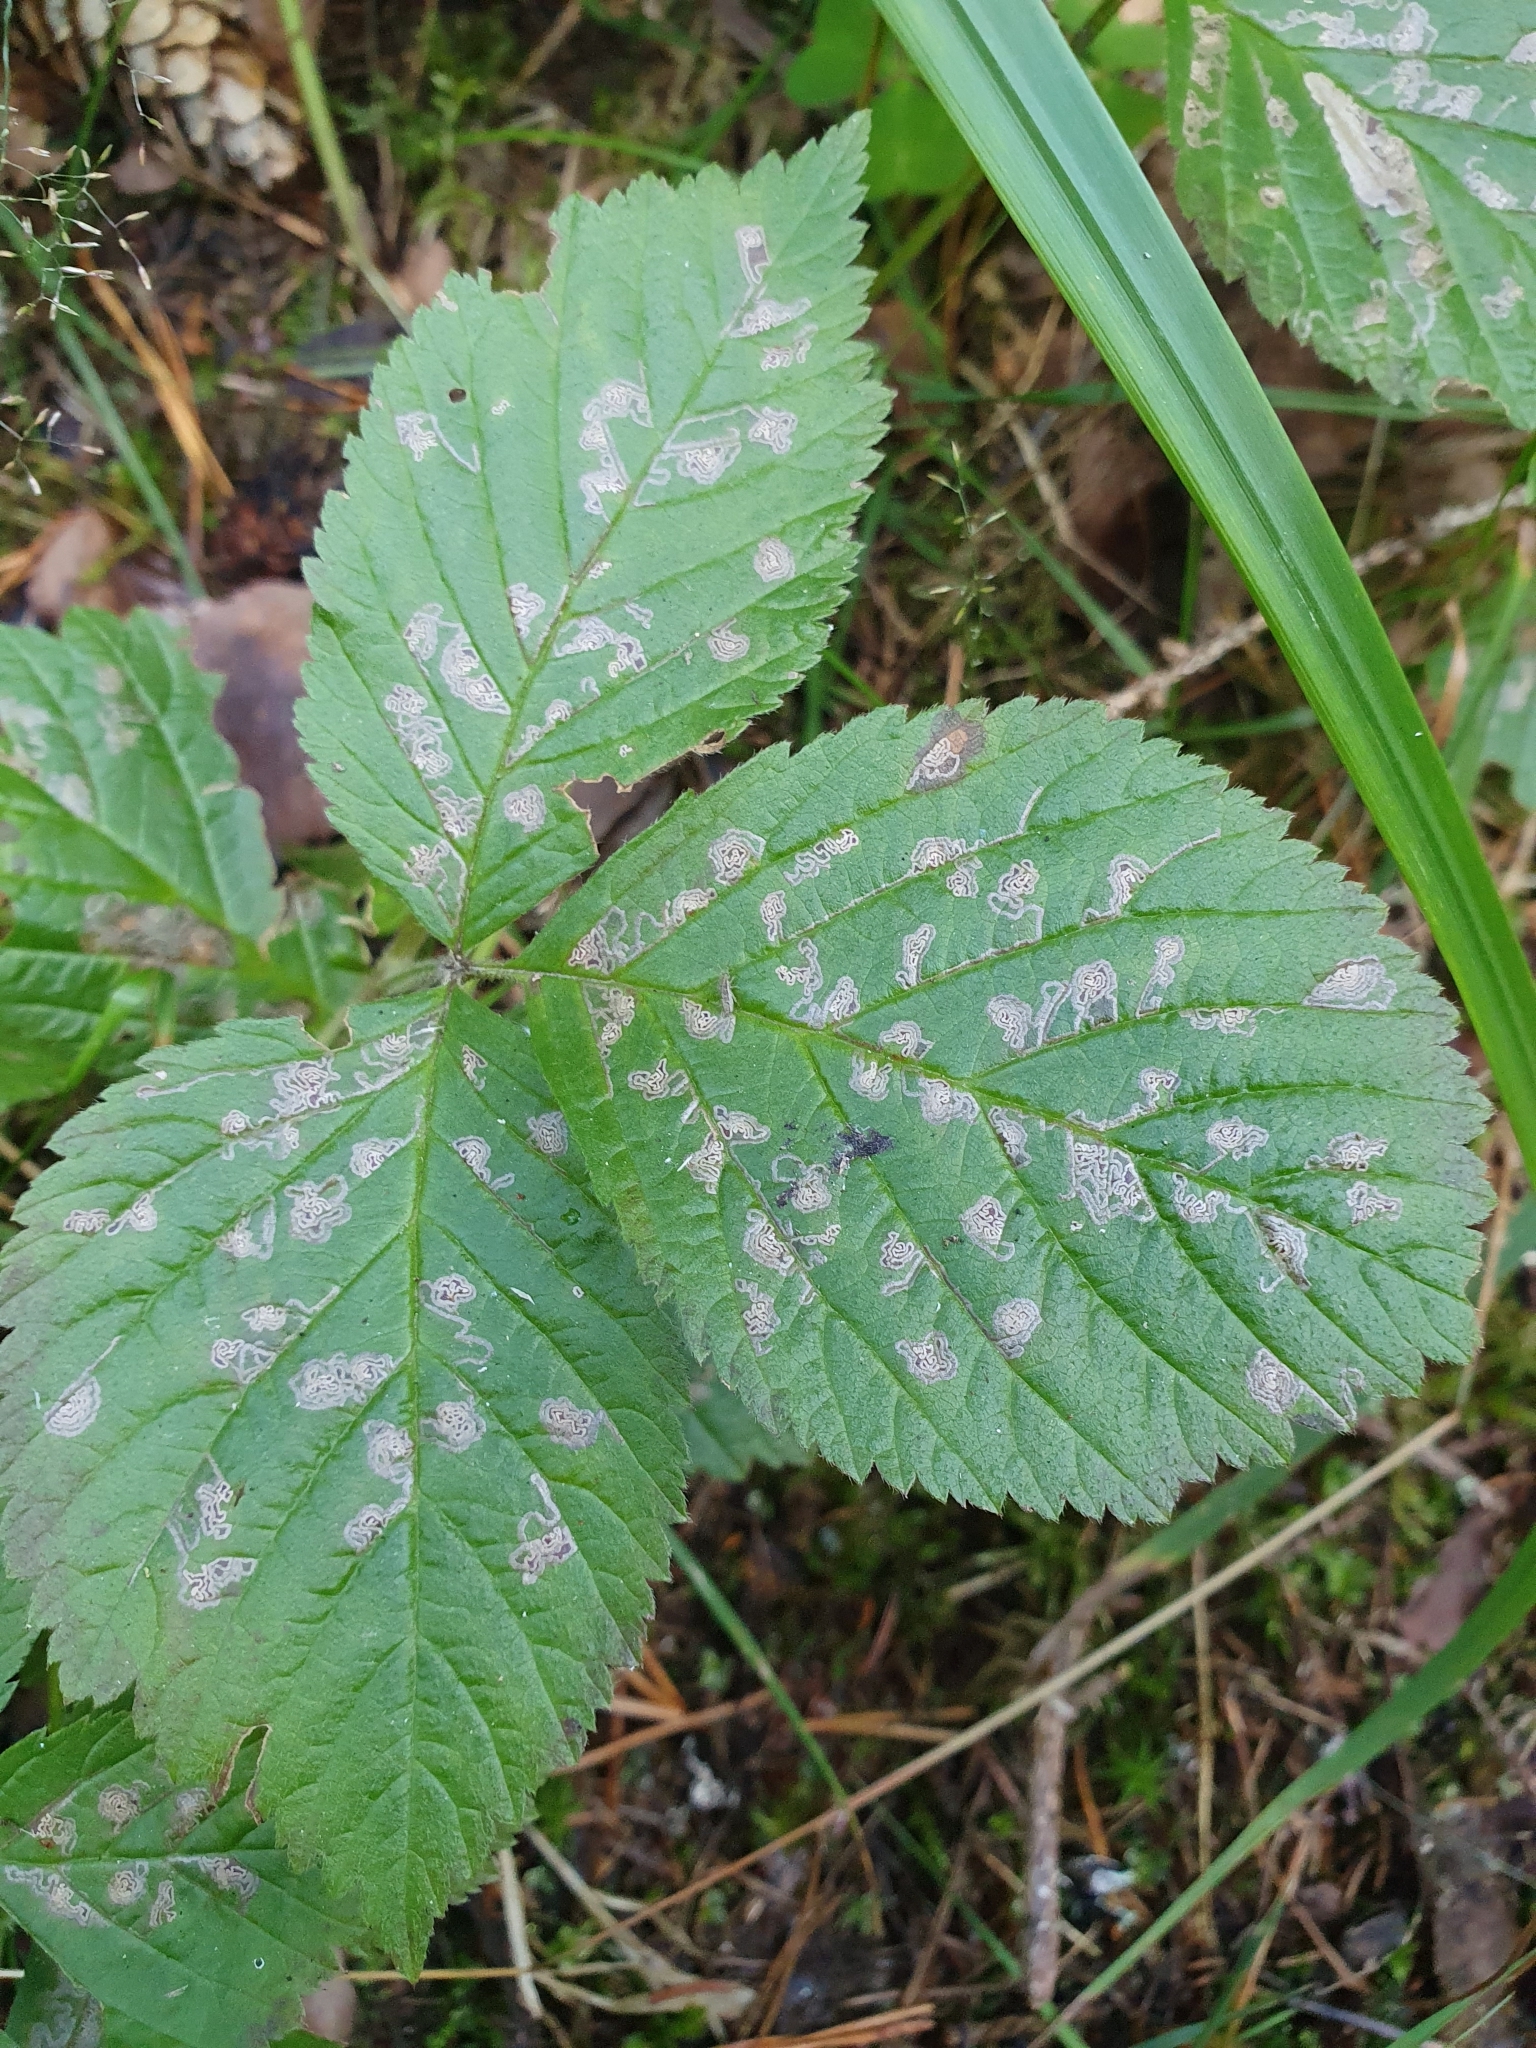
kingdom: Animalia
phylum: Arthropoda
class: Insecta
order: Lepidoptera
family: Nepticulidae
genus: Ectoedemia
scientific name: Ectoedemia rubivora
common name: Dewberry pigmy
